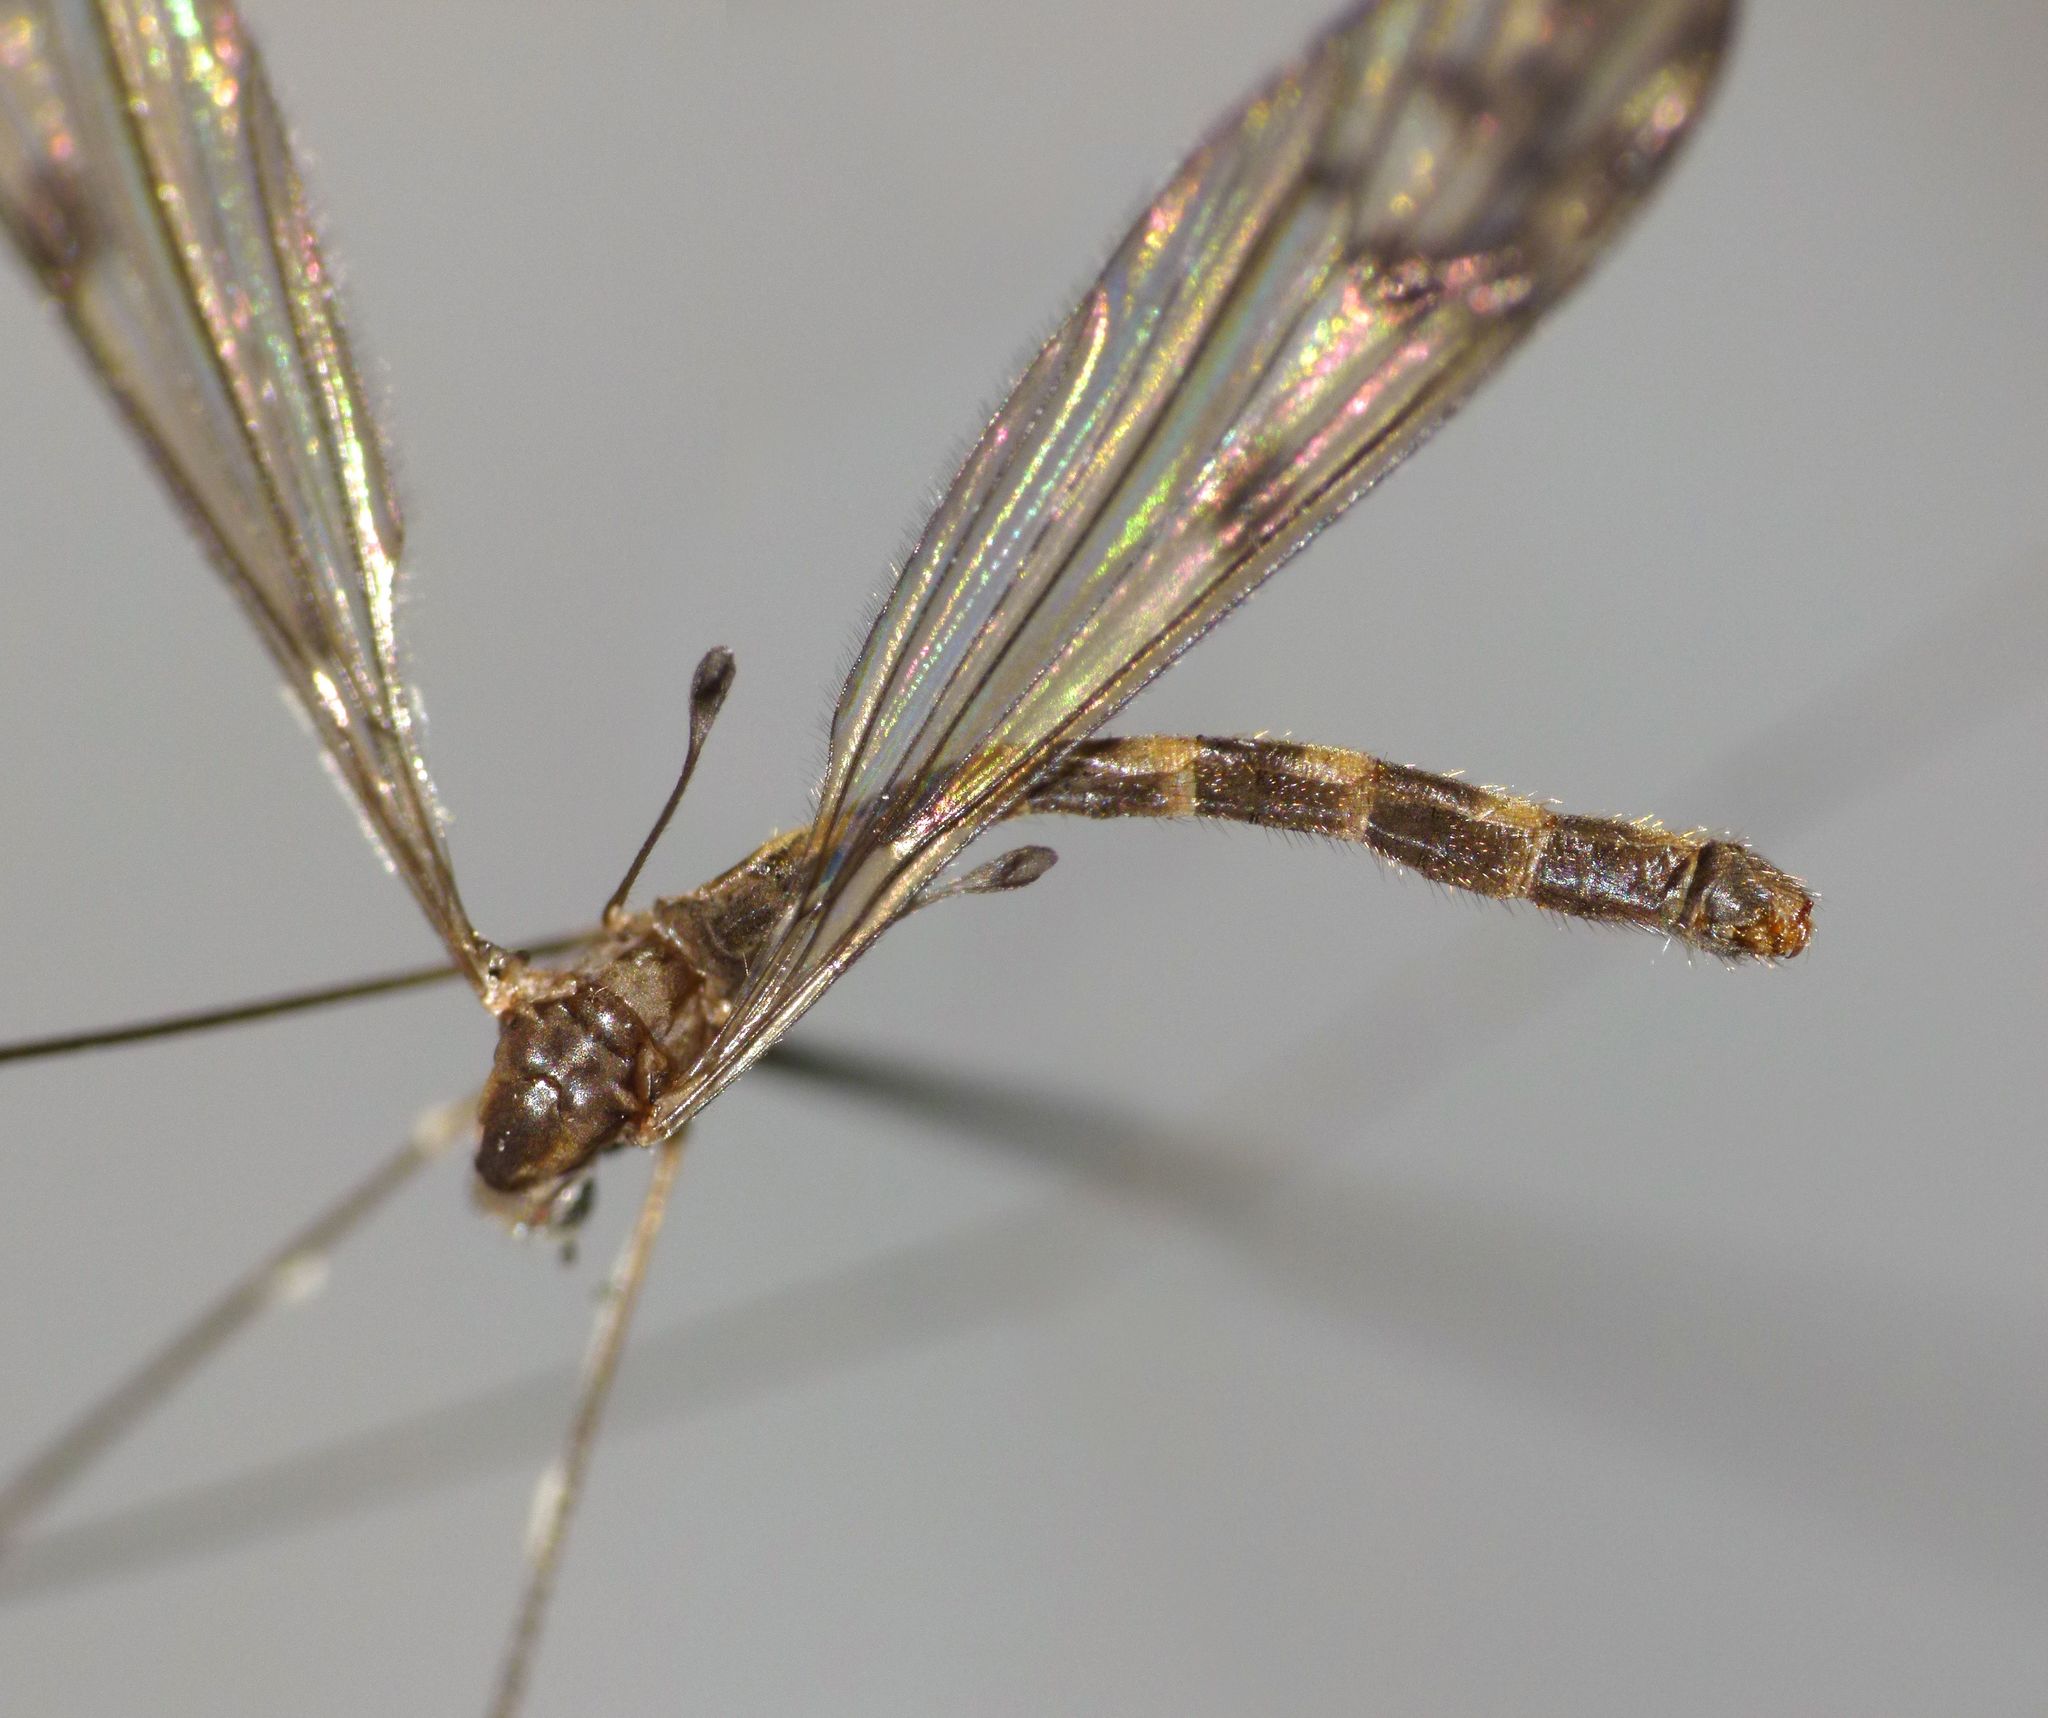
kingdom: Animalia
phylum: Arthropoda
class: Insecta
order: Diptera
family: Limoniidae
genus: Nothophila
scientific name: Nothophila fuscana
